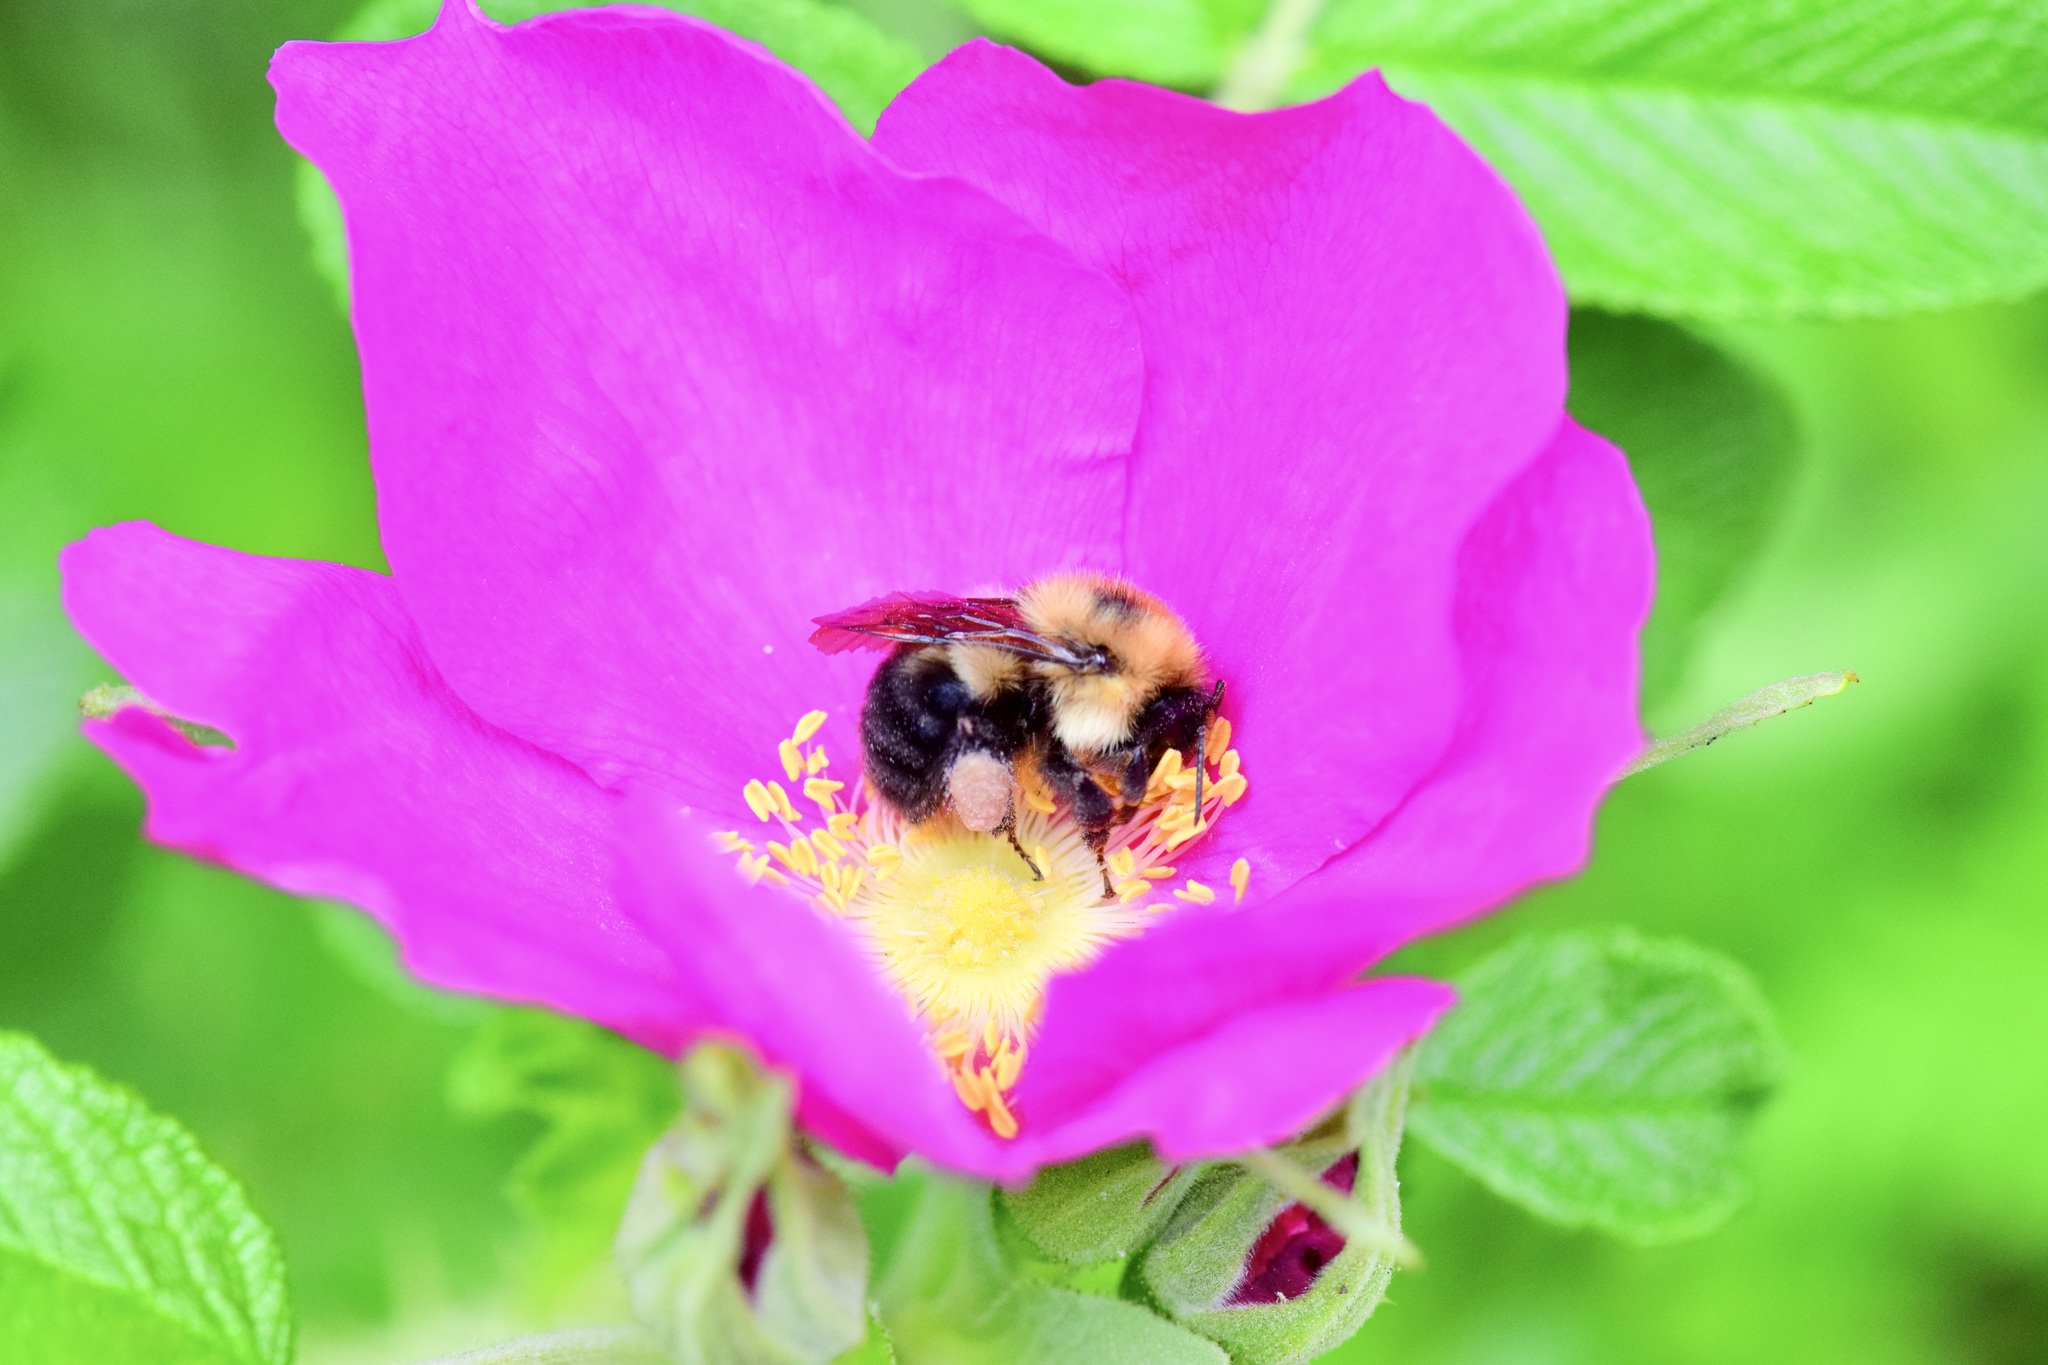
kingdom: Animalia
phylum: Arthropoda
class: Insecta
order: Hymenoptera
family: Apidae
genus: Bombus
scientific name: Bombus bimaculatus
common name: Two-spotted bumble bee
